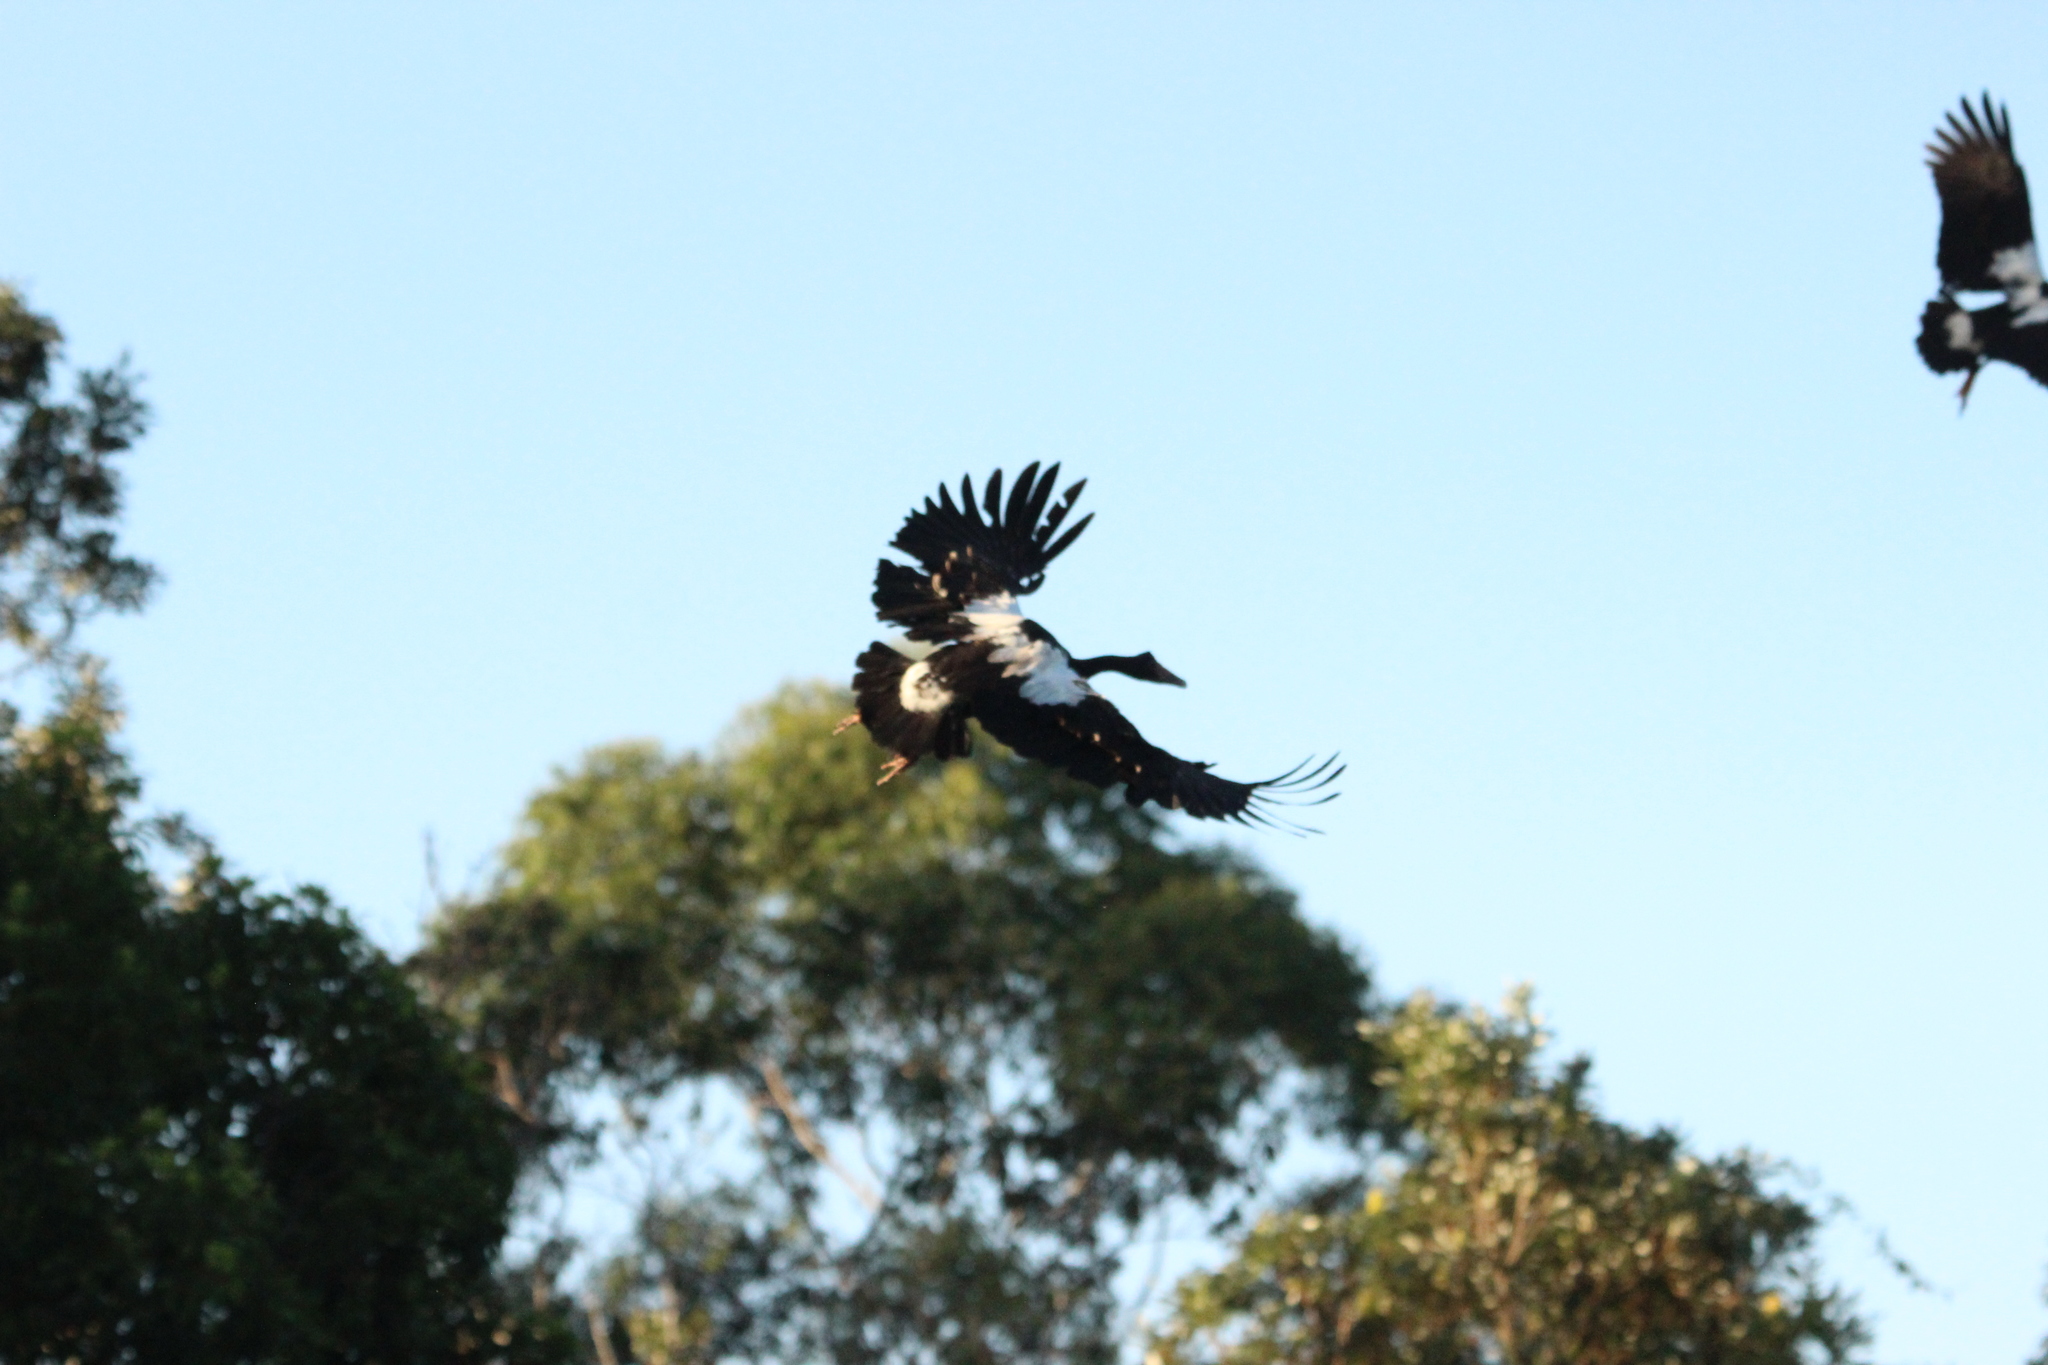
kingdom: Animalia
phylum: Chordata
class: Aves
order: Anseriformes
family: Anseranatidae
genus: Anseranas
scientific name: Anseranas semipalmata
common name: Magpie goose
